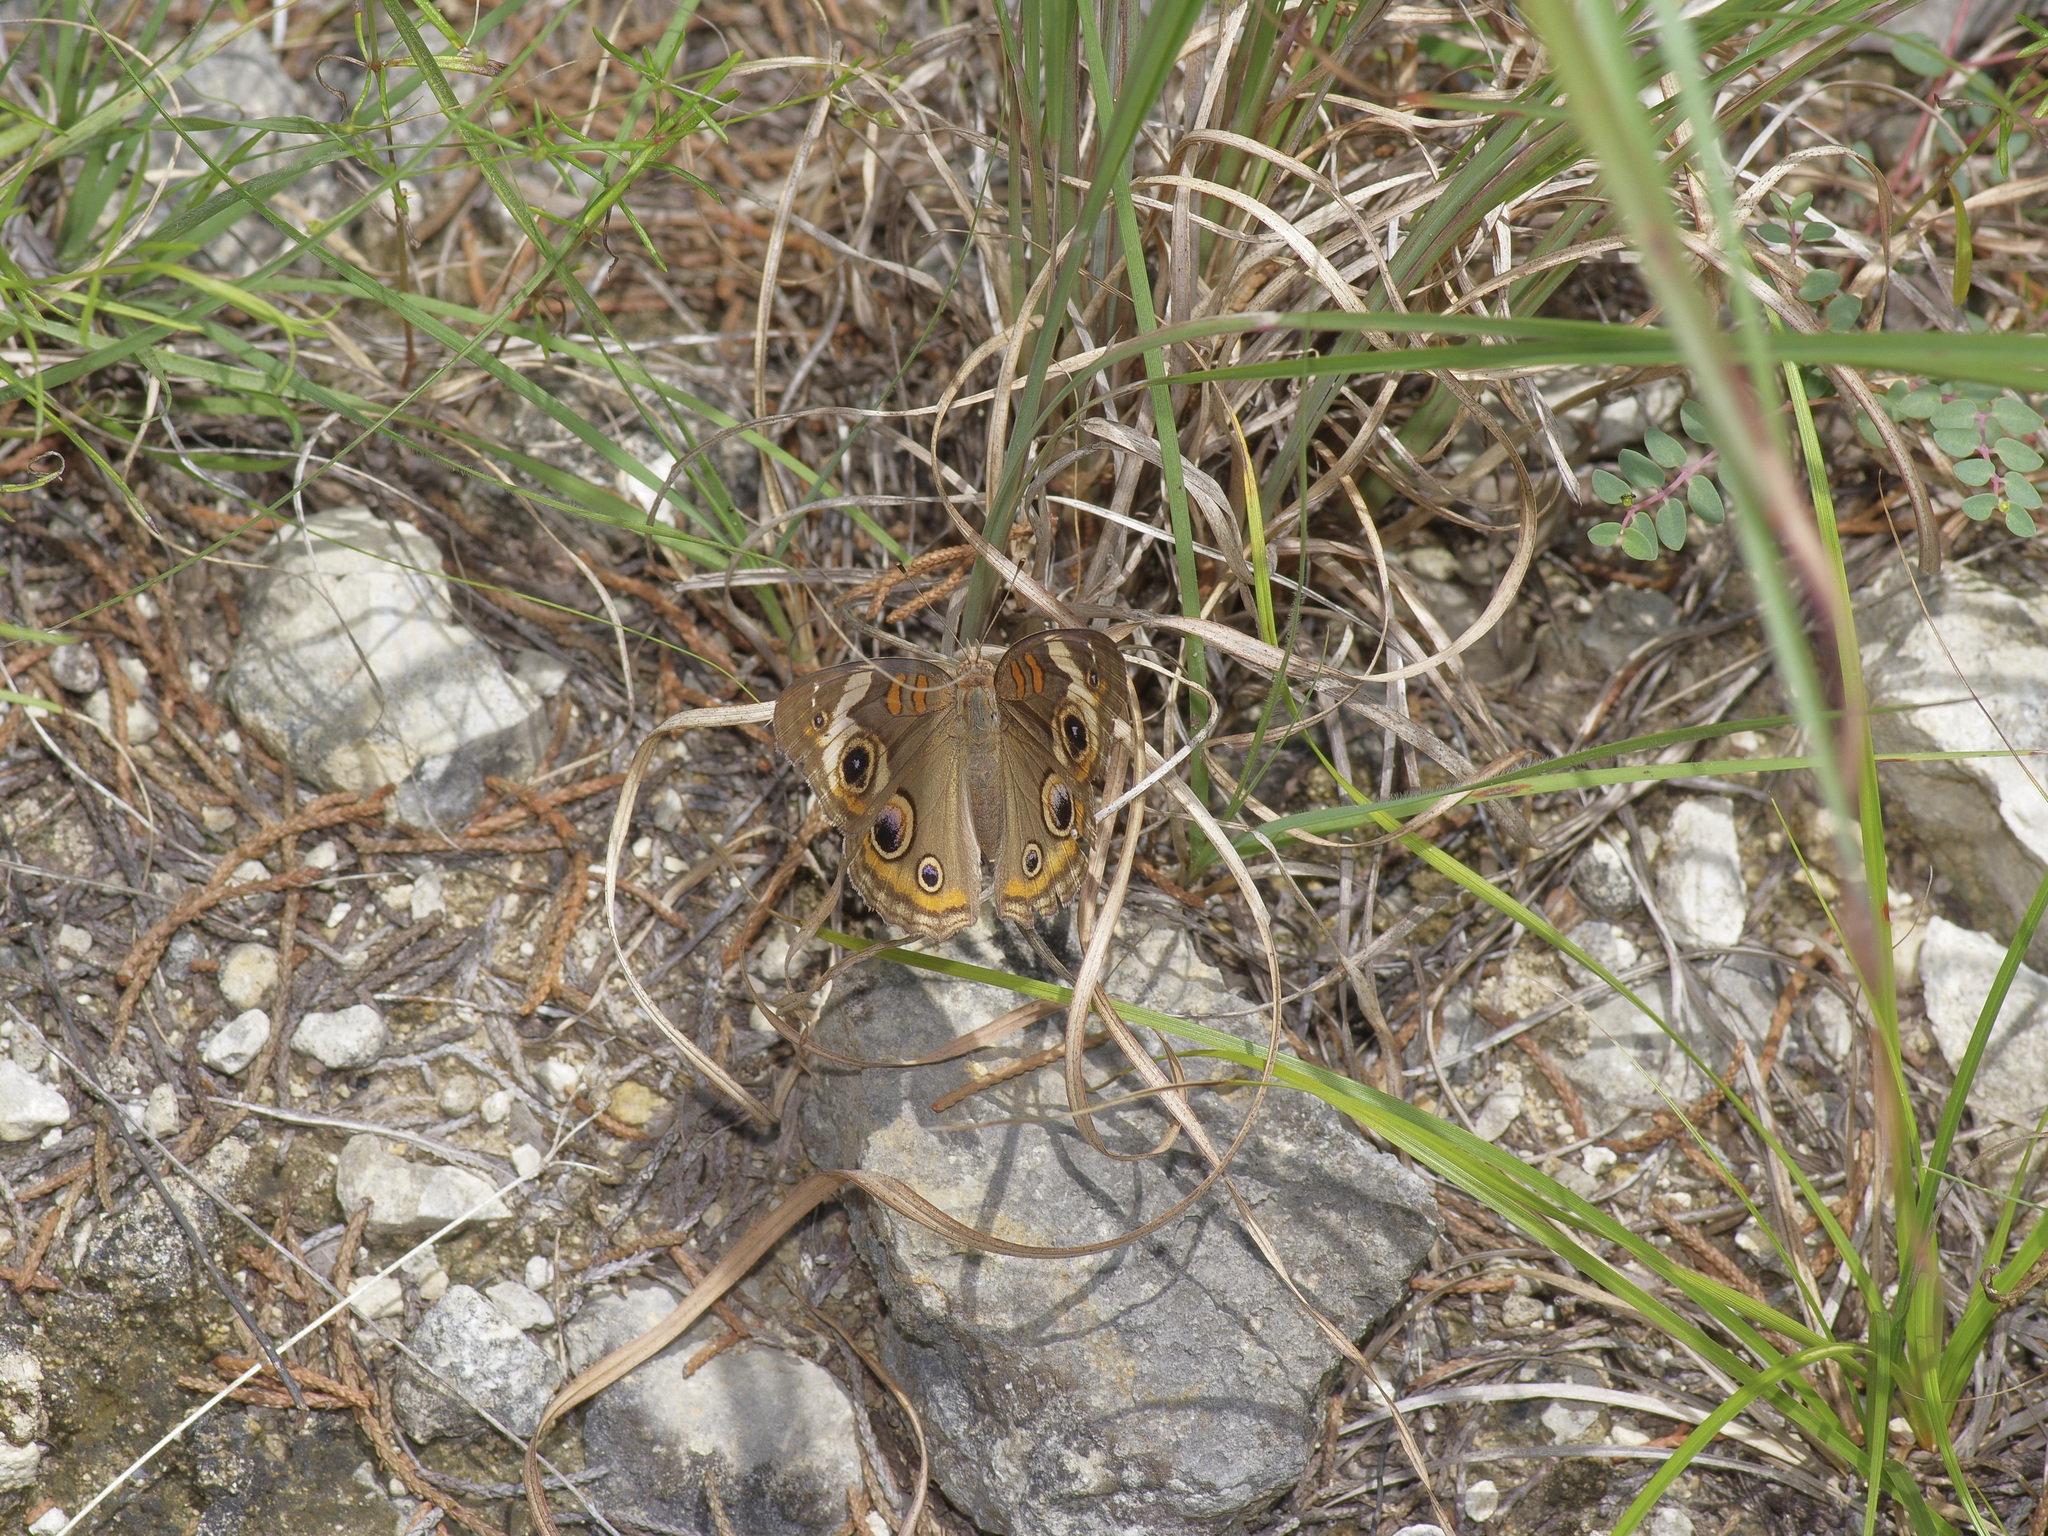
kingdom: Animalia
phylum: Arthropoda
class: Insecta
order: Lepidoptera
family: Nymphalidae
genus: Junonia
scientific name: Junonia coenia
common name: Common buckeye
